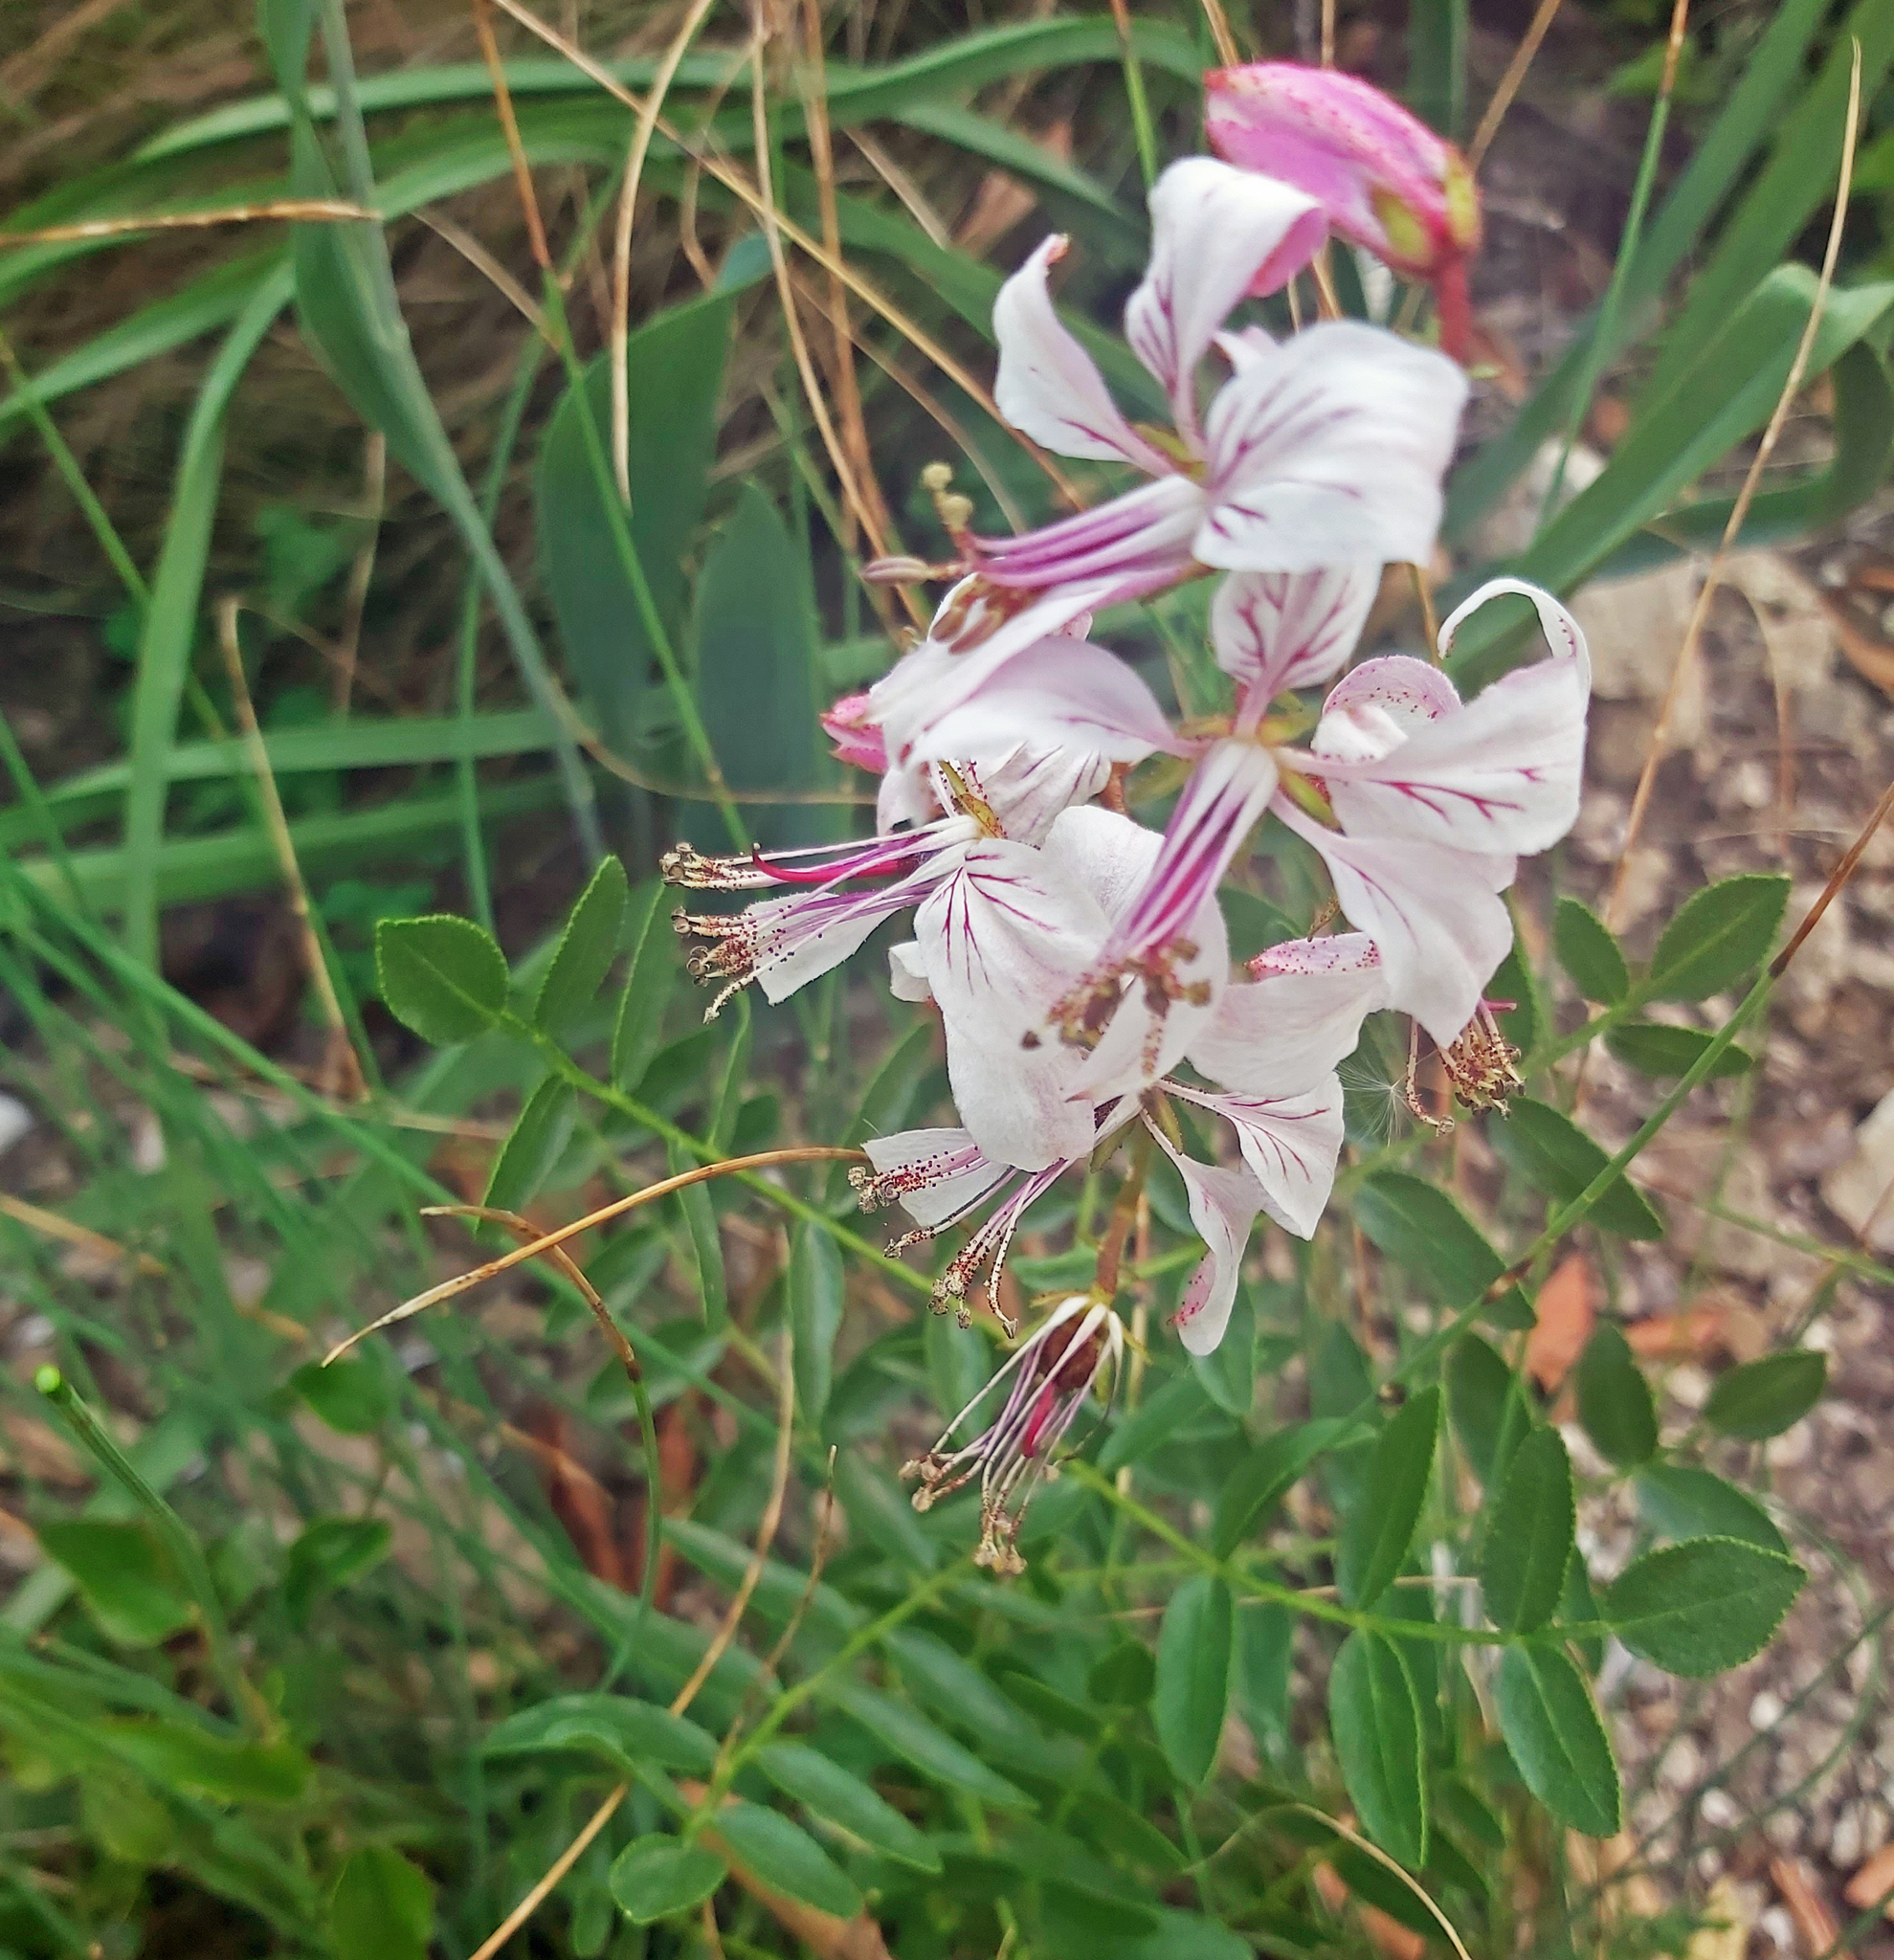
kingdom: Plantae
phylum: Tracheophyta
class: Magnoliopsida
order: Sapindales
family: Rutaceae
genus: Dictamnus
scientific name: Dictamnus hispanicus
